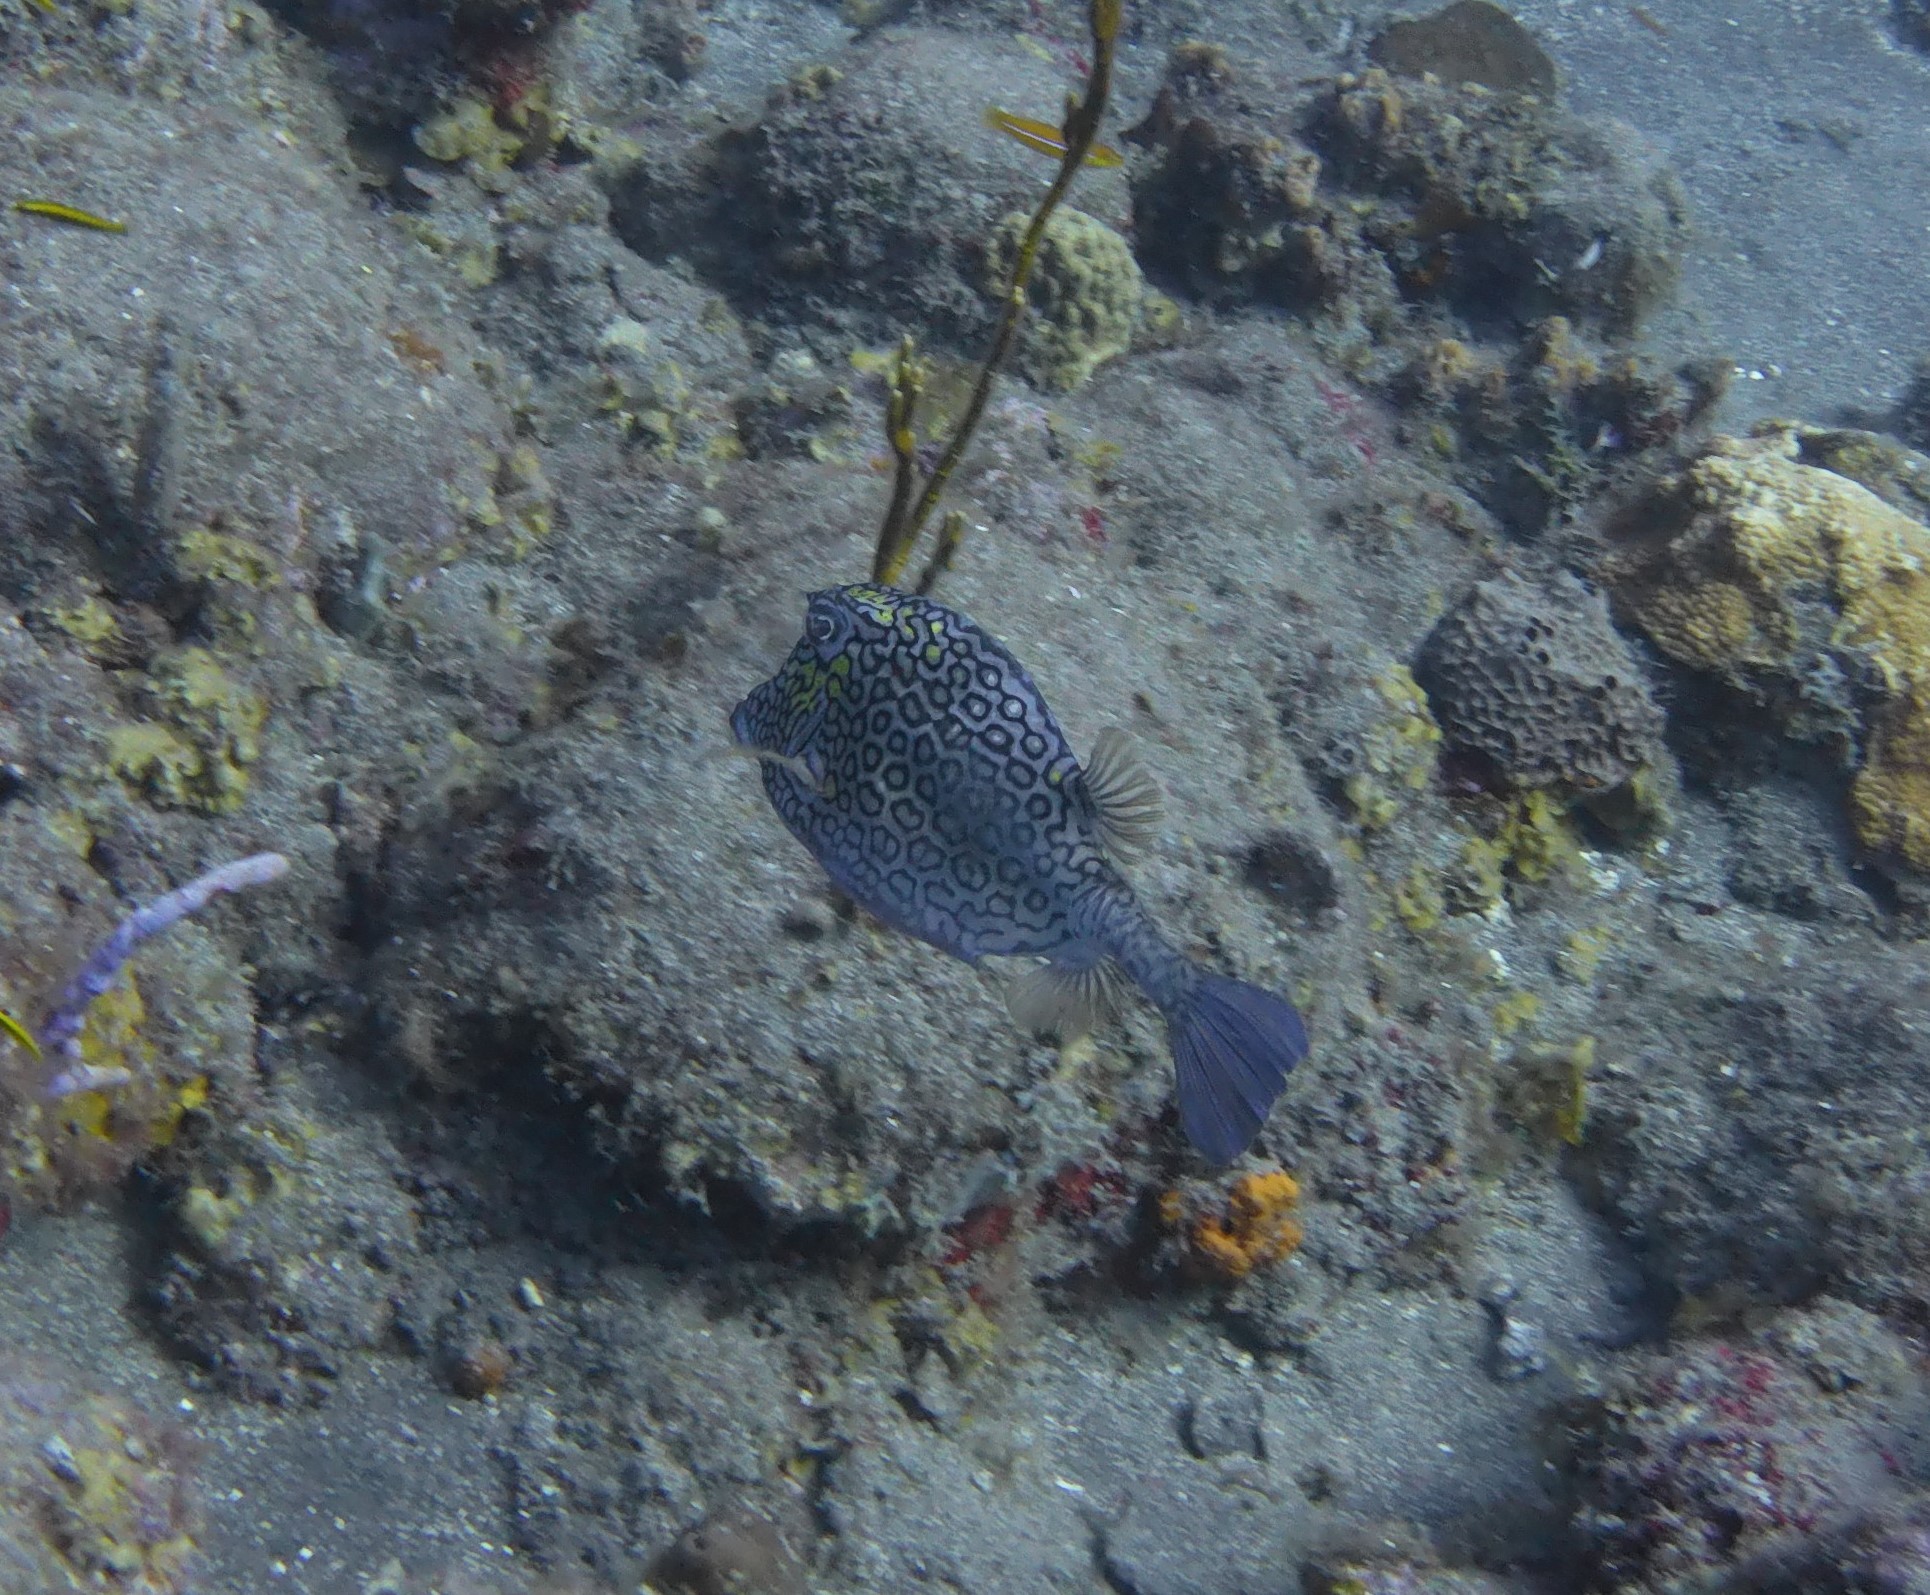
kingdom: Animalia
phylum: Chordata
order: Tetraodontiformes
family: Ostraciidae
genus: Acanthostracion
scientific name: Acanthostracion polygonius
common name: Honeycomb cowfish
